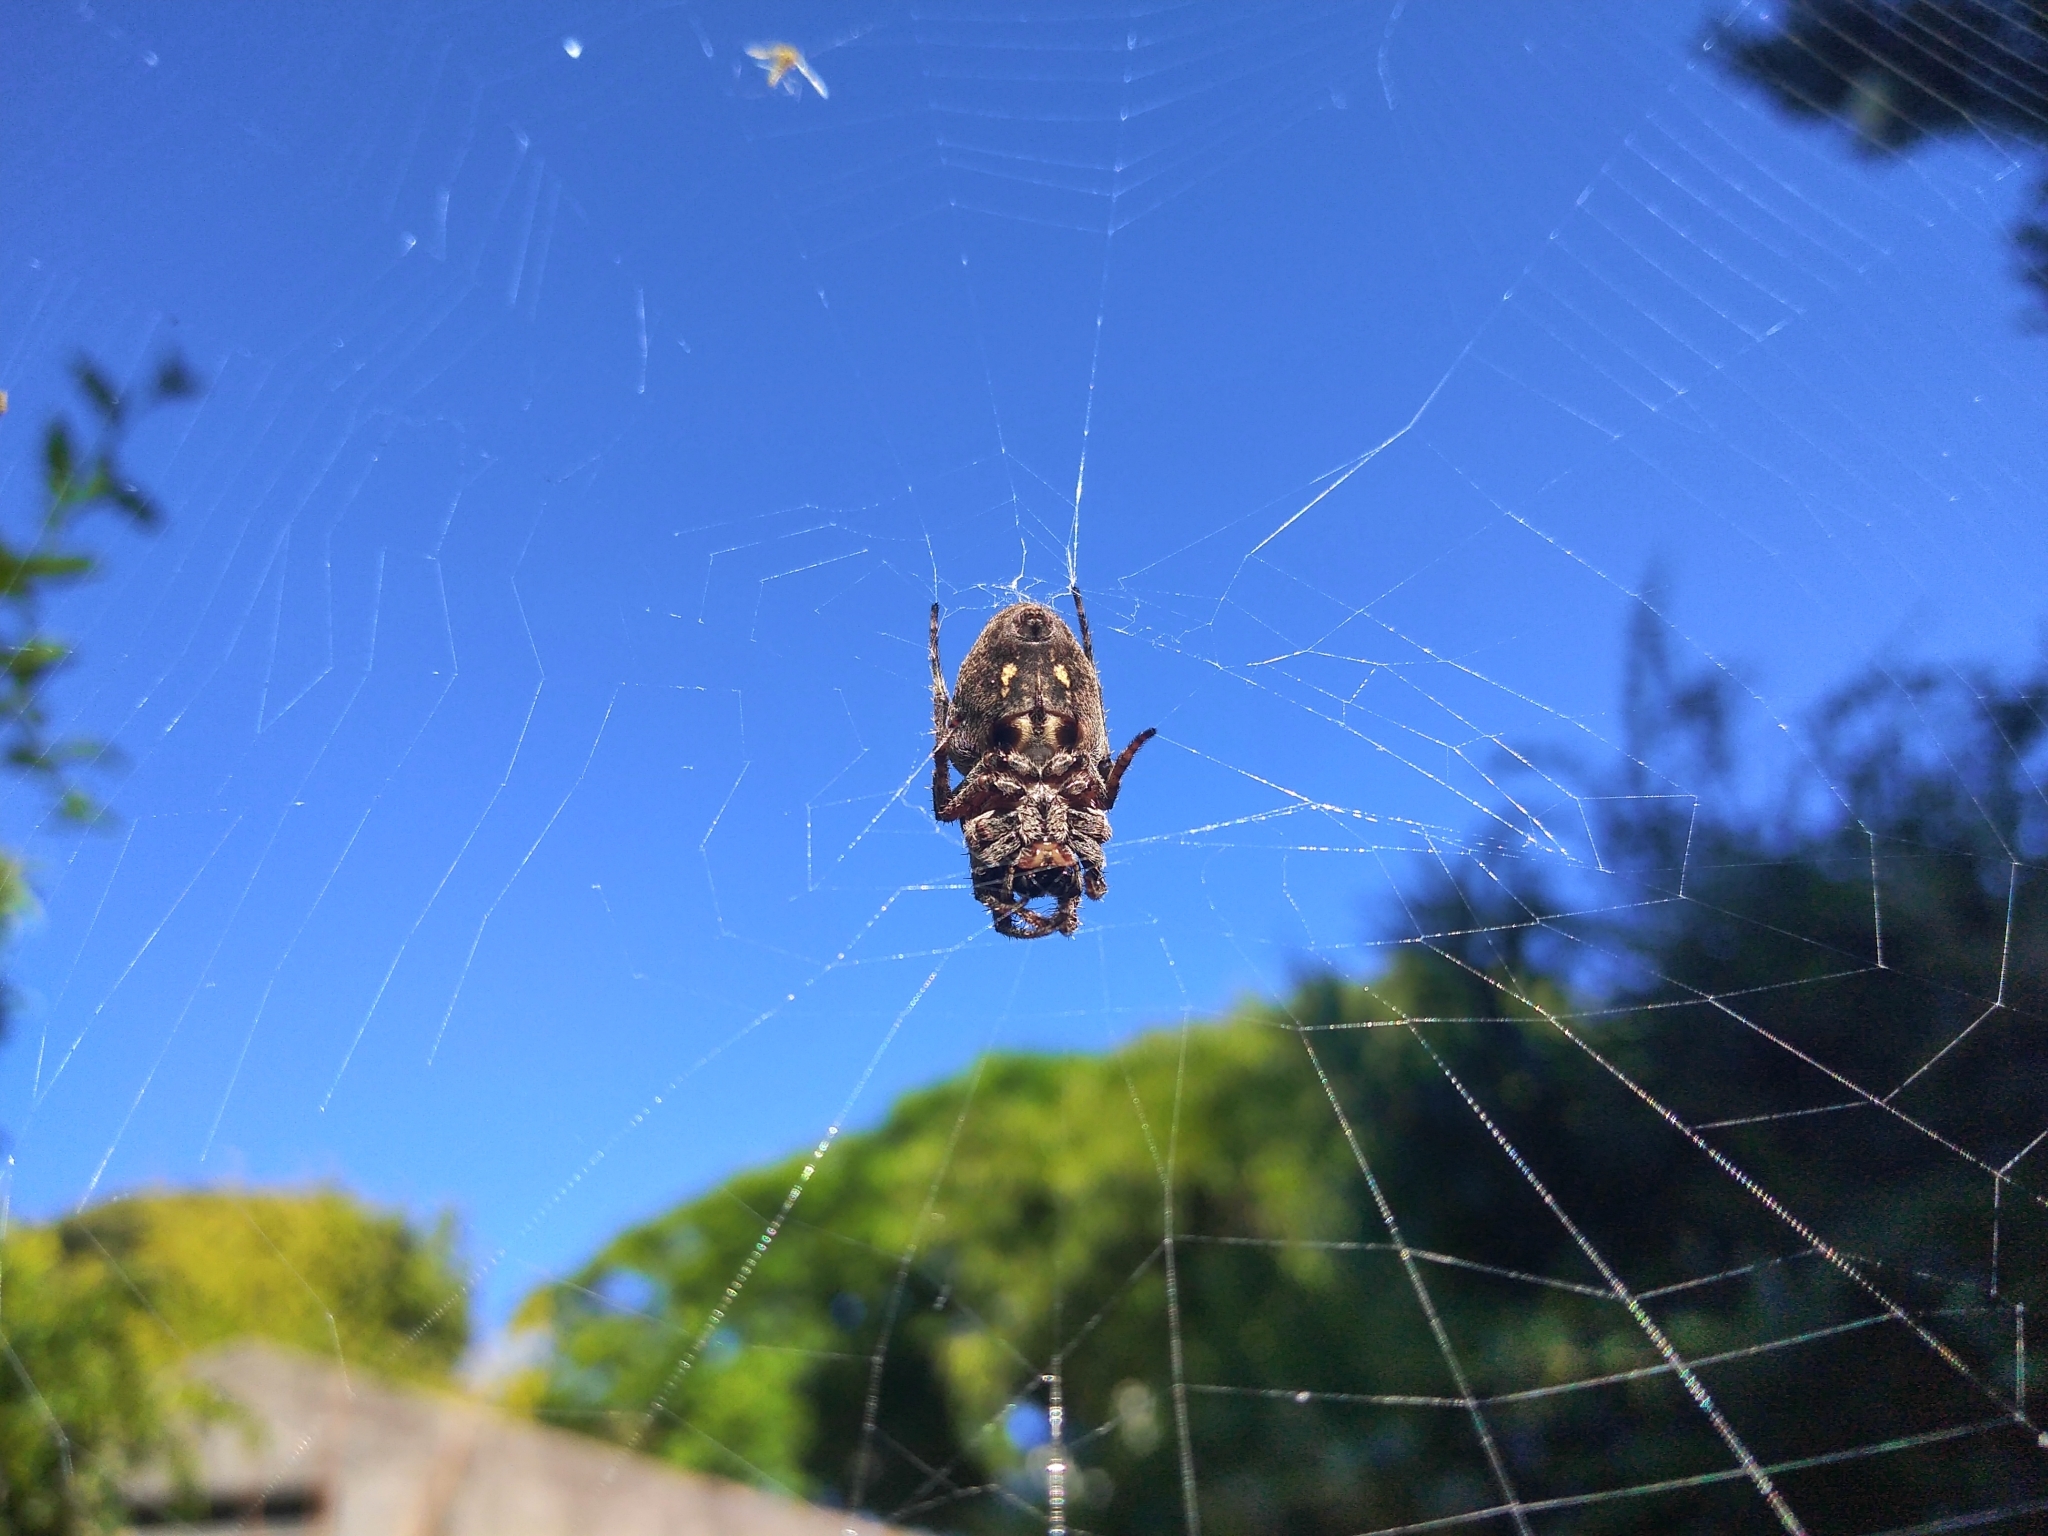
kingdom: Animalia
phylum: Arthropoda
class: Arachnida
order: Araneae
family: Araneidae
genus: Parawixia
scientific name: Parawixia audax
